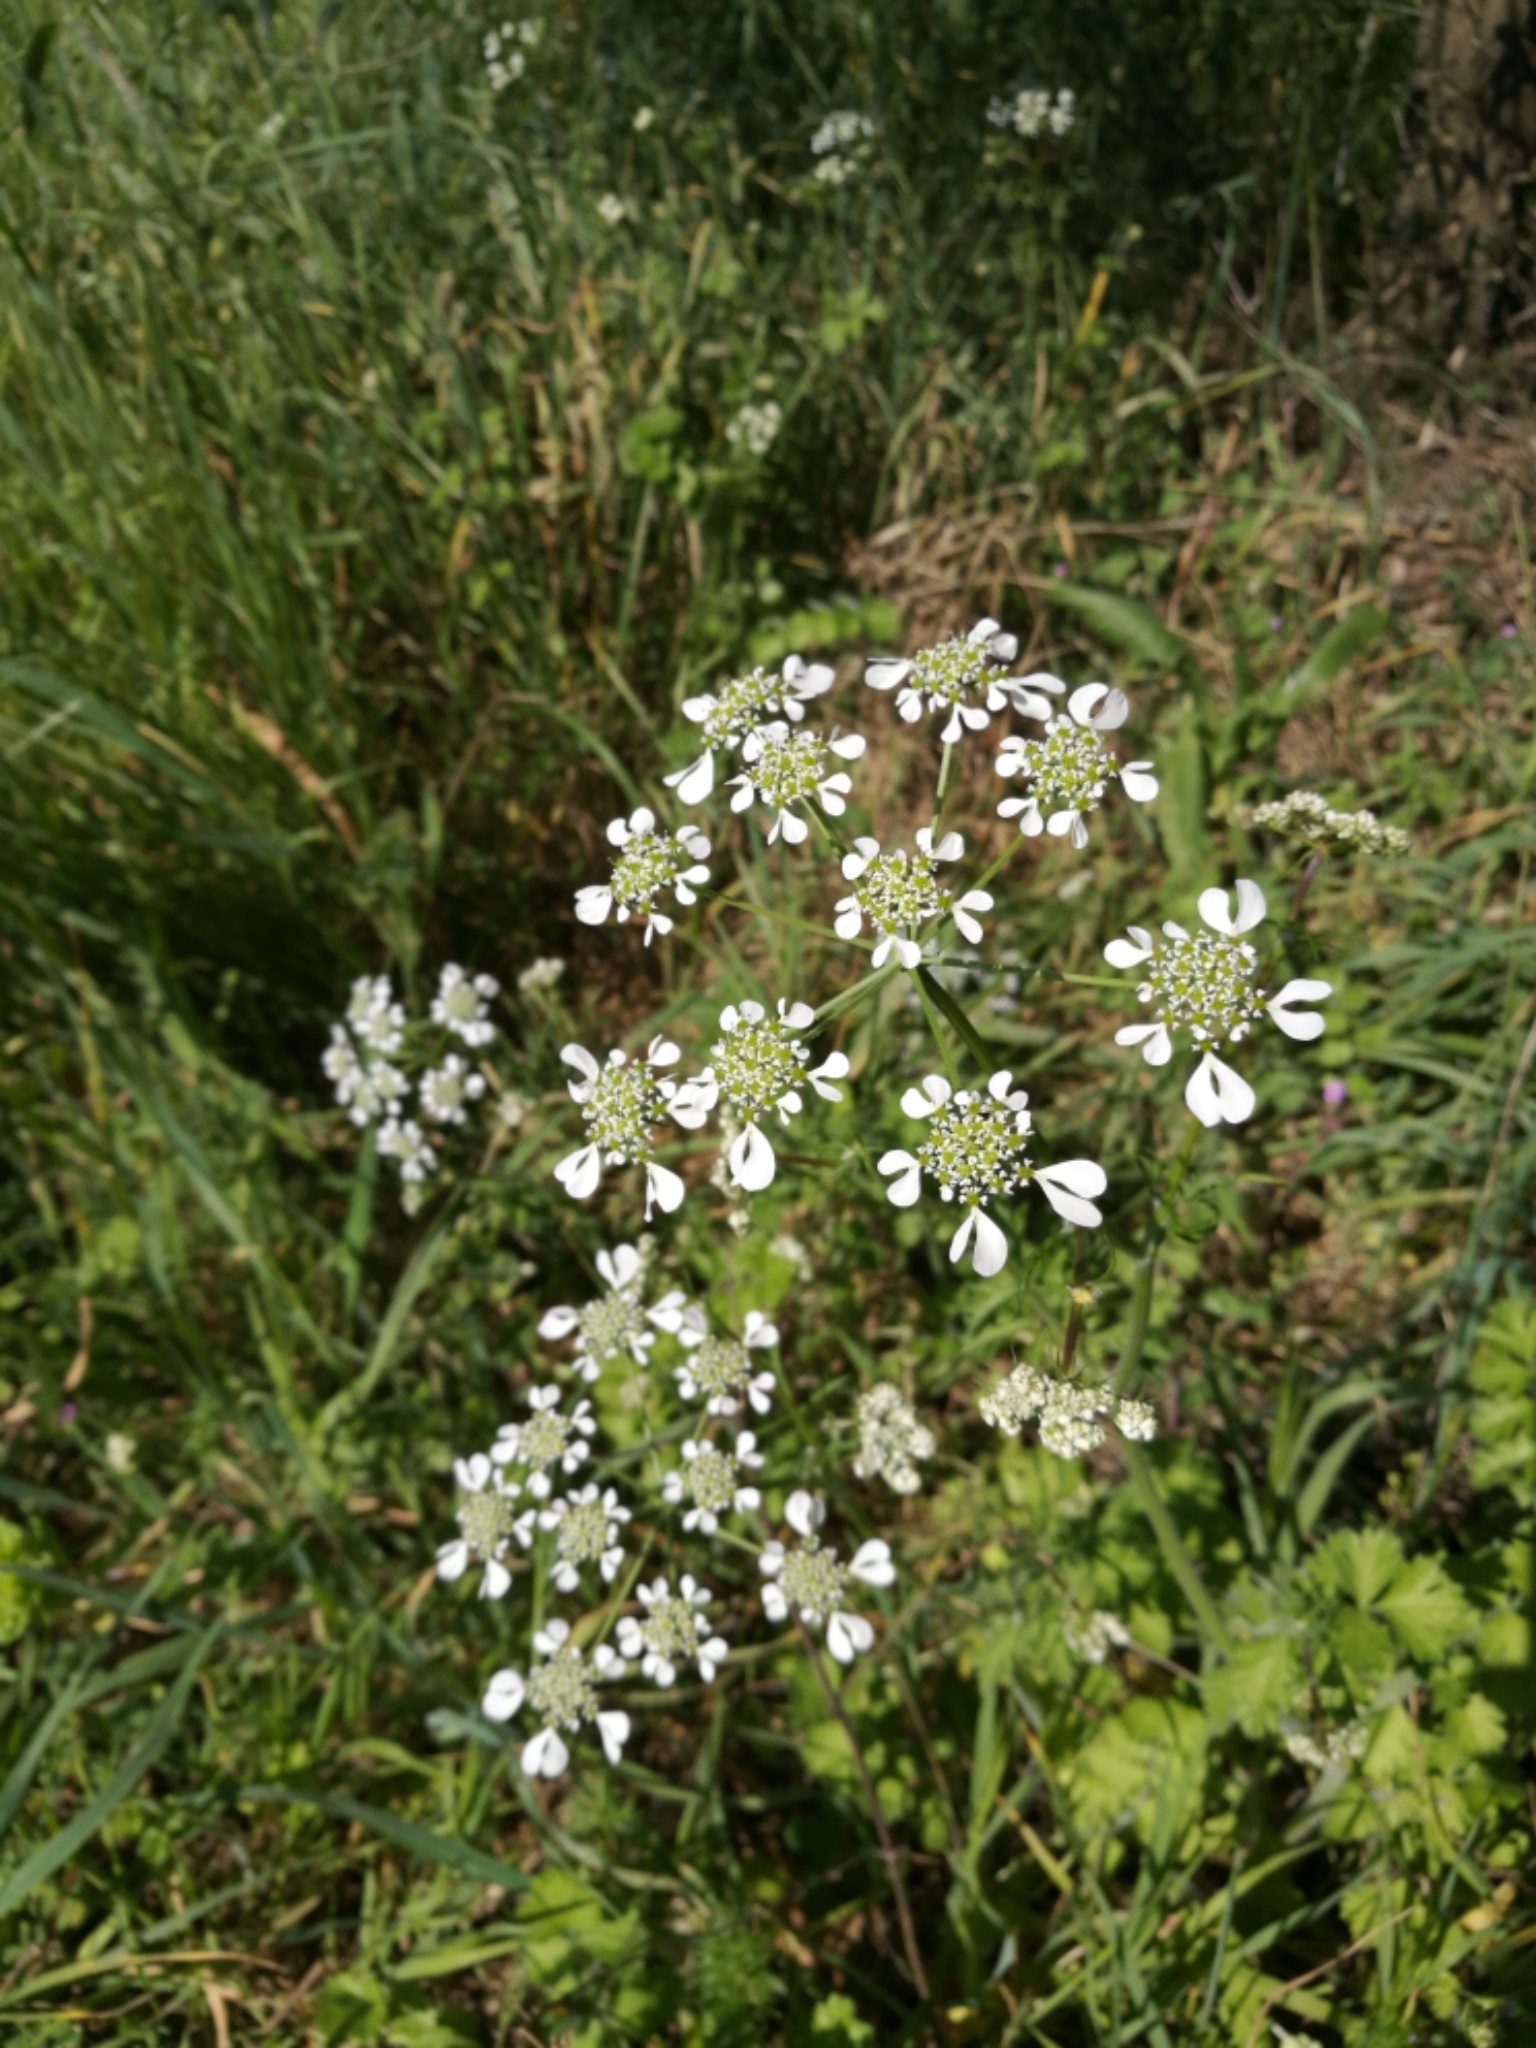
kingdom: Plantae
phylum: Tracheophyta
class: Magnoliopsida
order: Apiales
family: Apiaceae
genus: Tordylium
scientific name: Tordylium apulum
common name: Mediterranean hartwort
